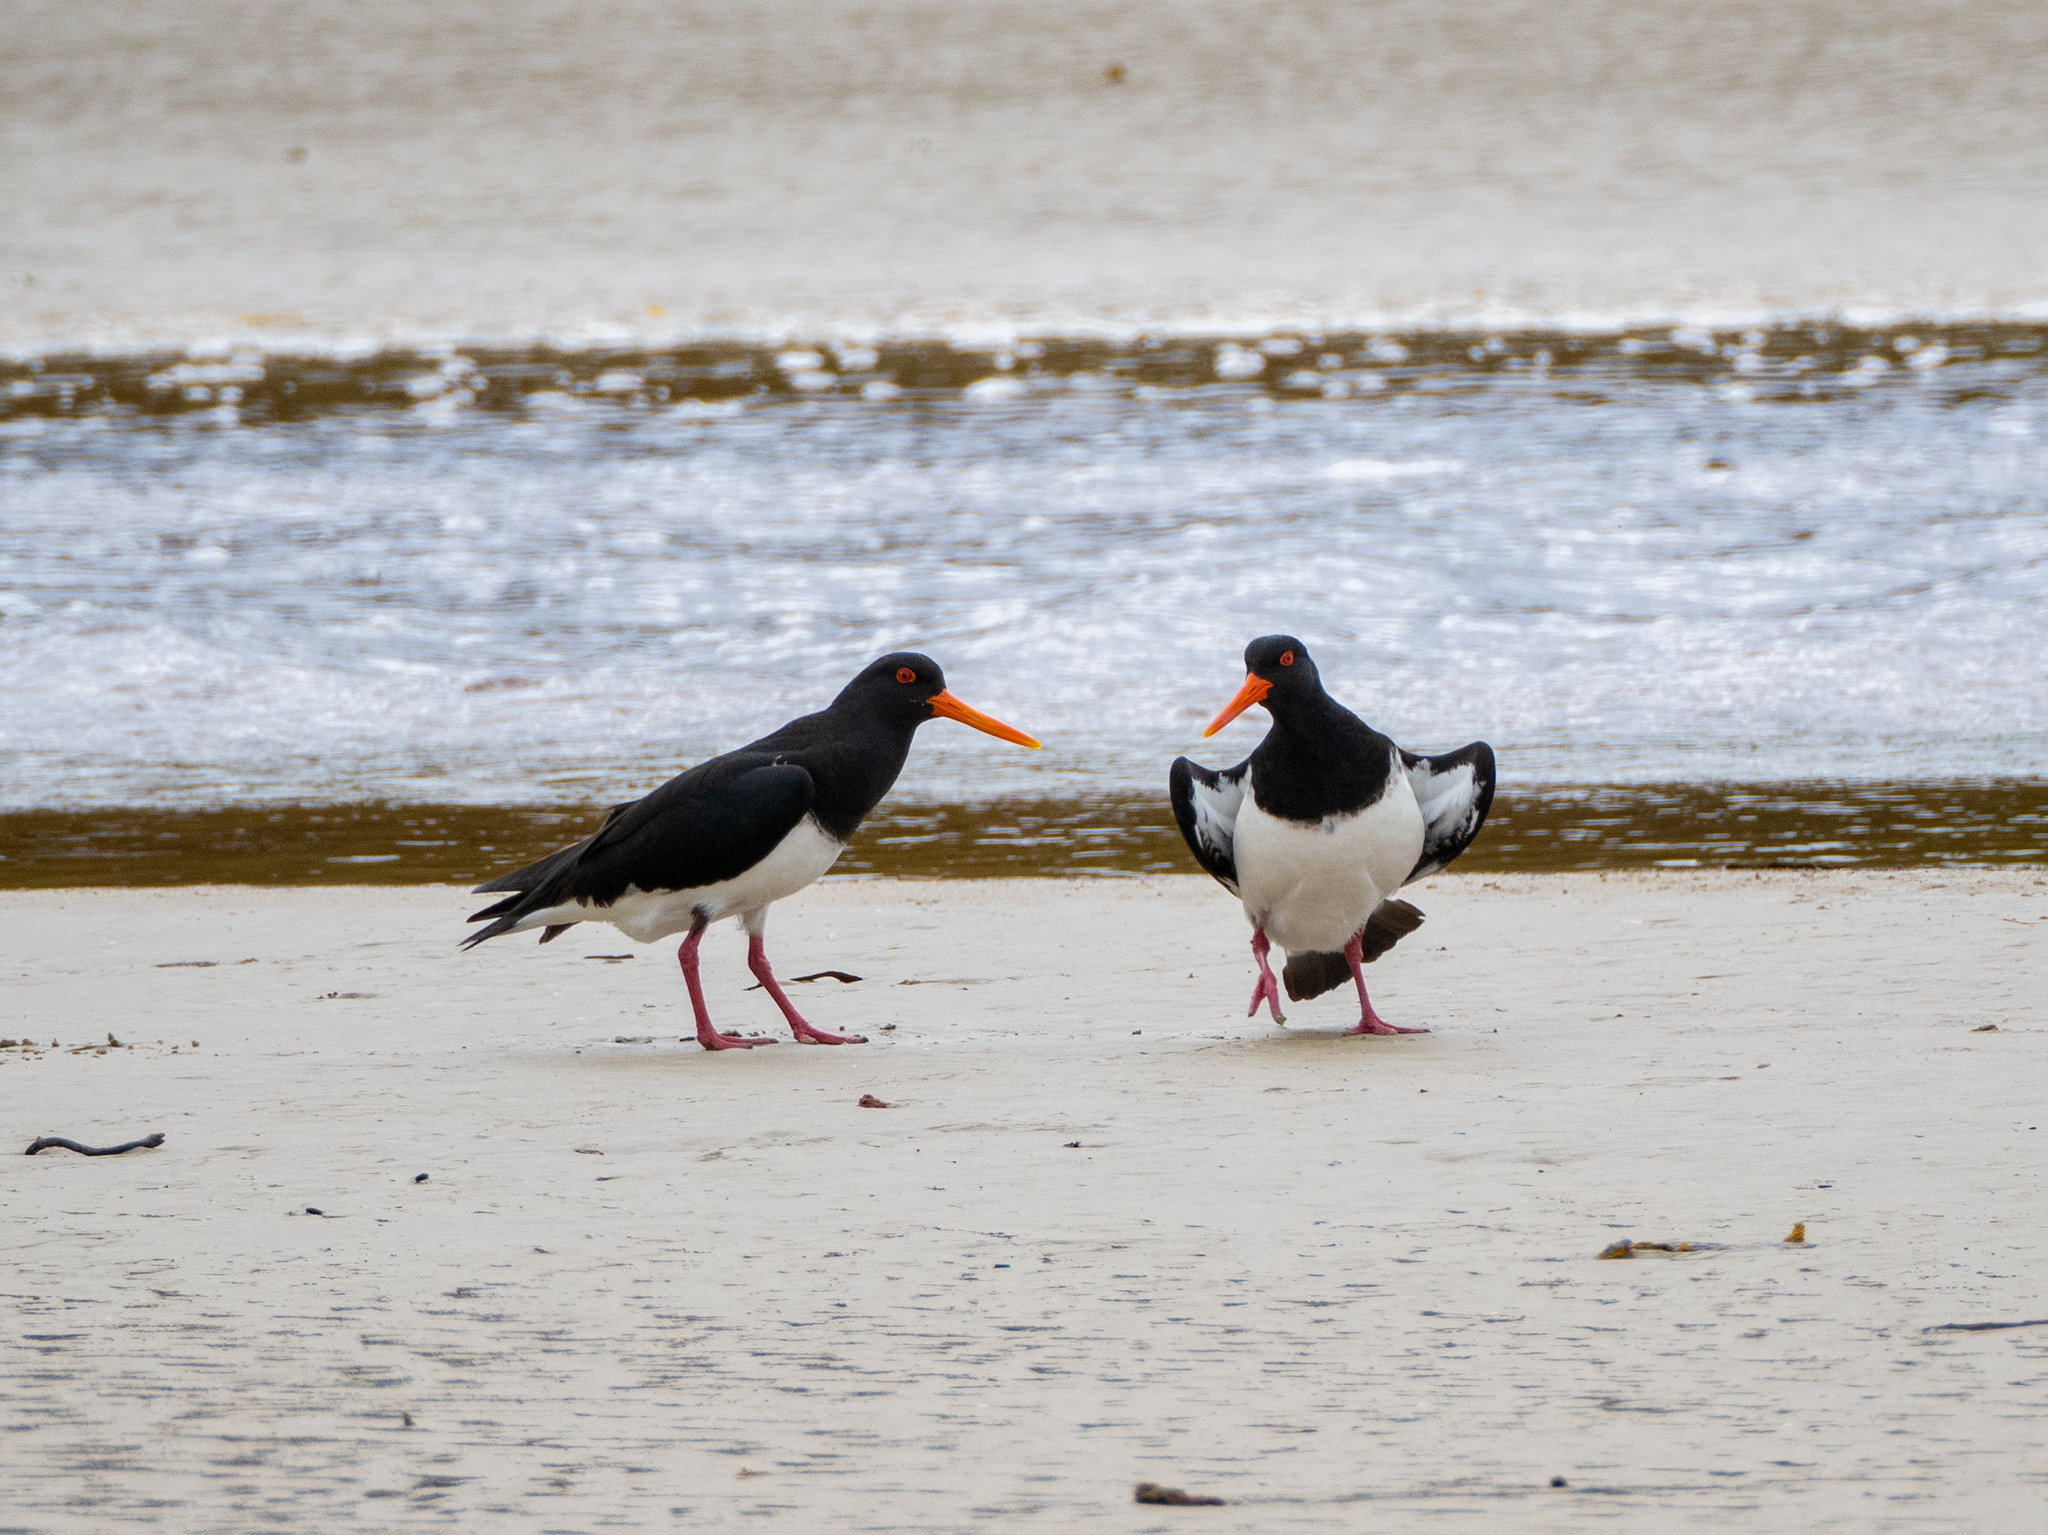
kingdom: Animalia
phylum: Chordata
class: Aves
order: Charadriiformes
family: Haematopodidae
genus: Haematopus
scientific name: Haematopus chathamensis
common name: Chatham oystercatcher
